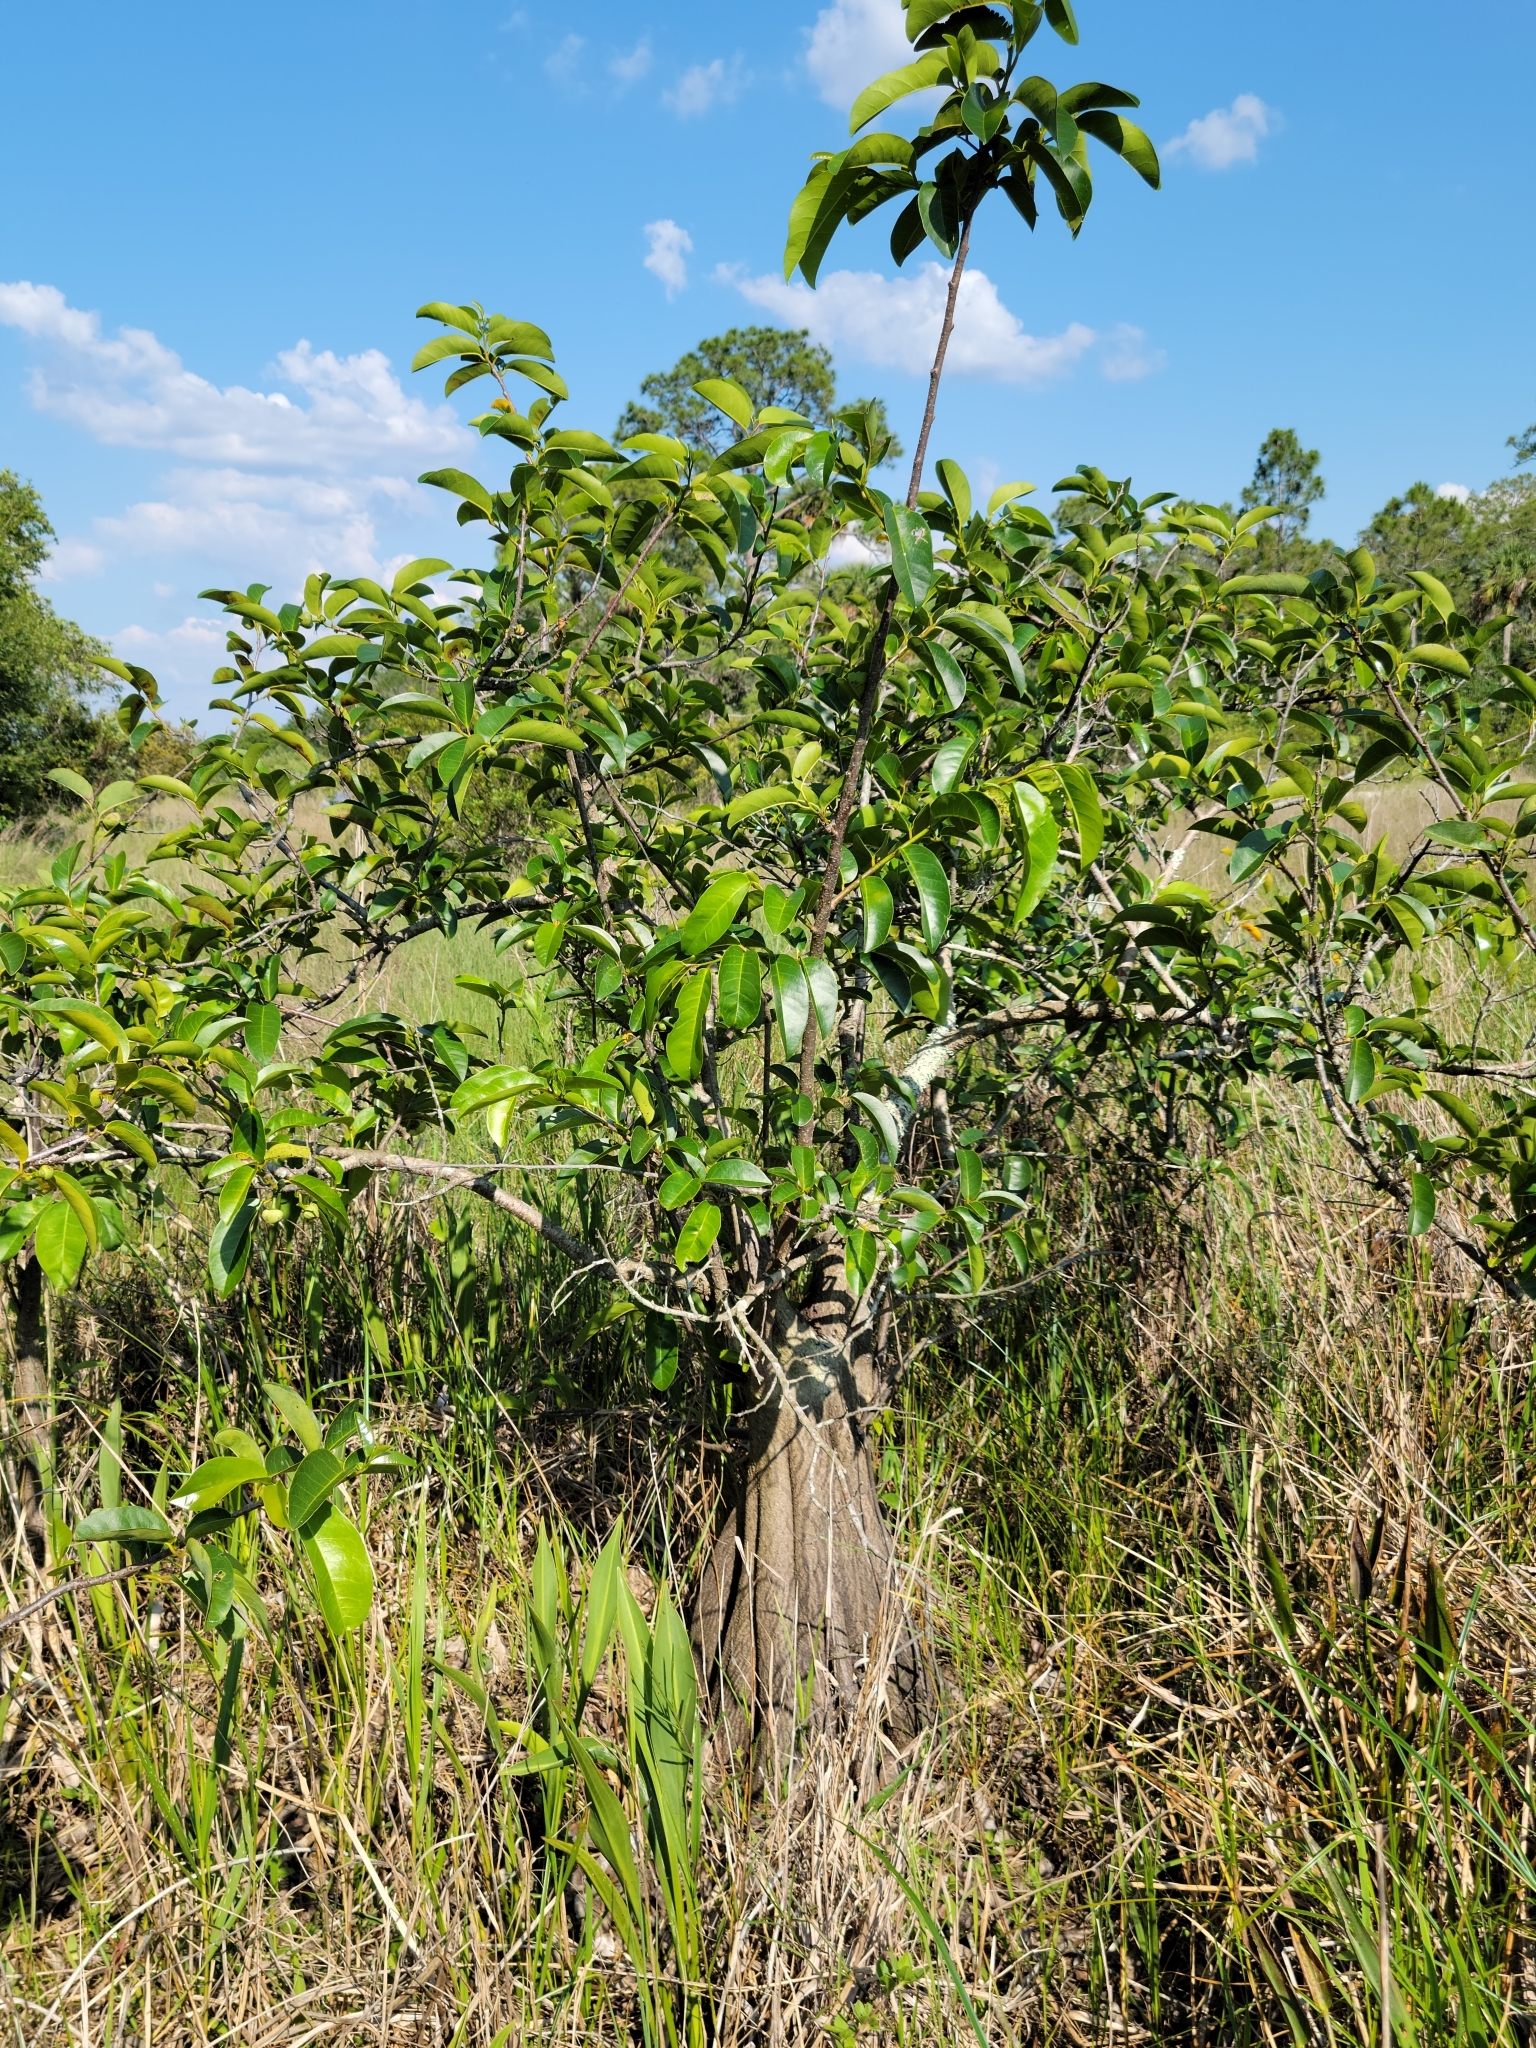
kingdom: Plantae
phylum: Tracheophyta
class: Magnoliopsida
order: Magnoliales
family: Annonaceae
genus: Annona
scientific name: Annona glabra
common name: Monkey apple
